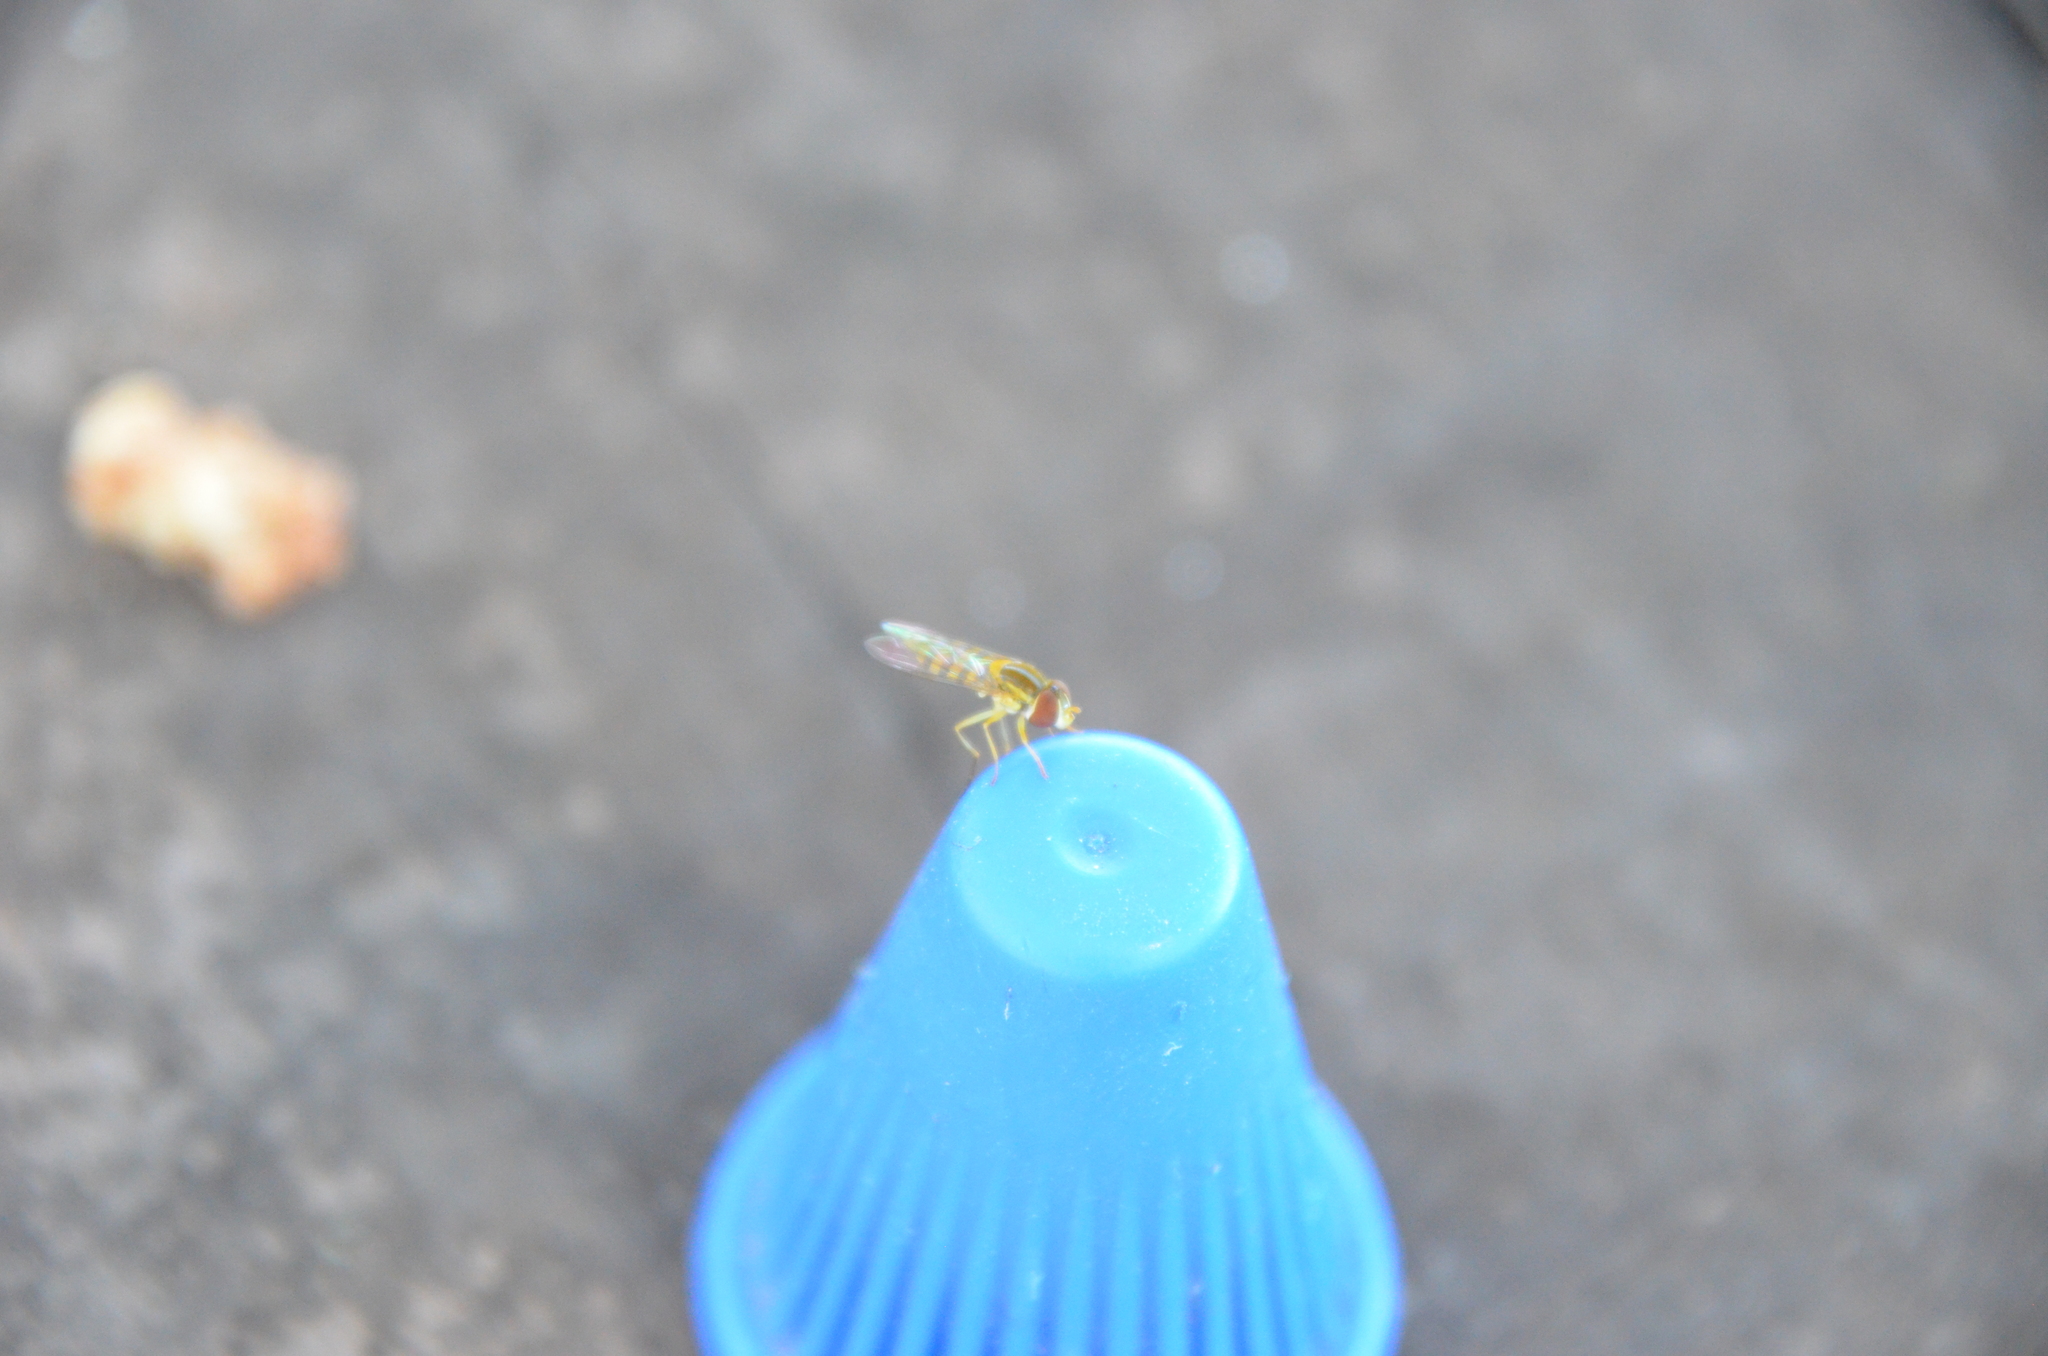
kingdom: Animalia
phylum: Arthropoda
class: Insecta
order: Diptera
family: Syrphidae
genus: Toxomerus
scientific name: Toxomerus
